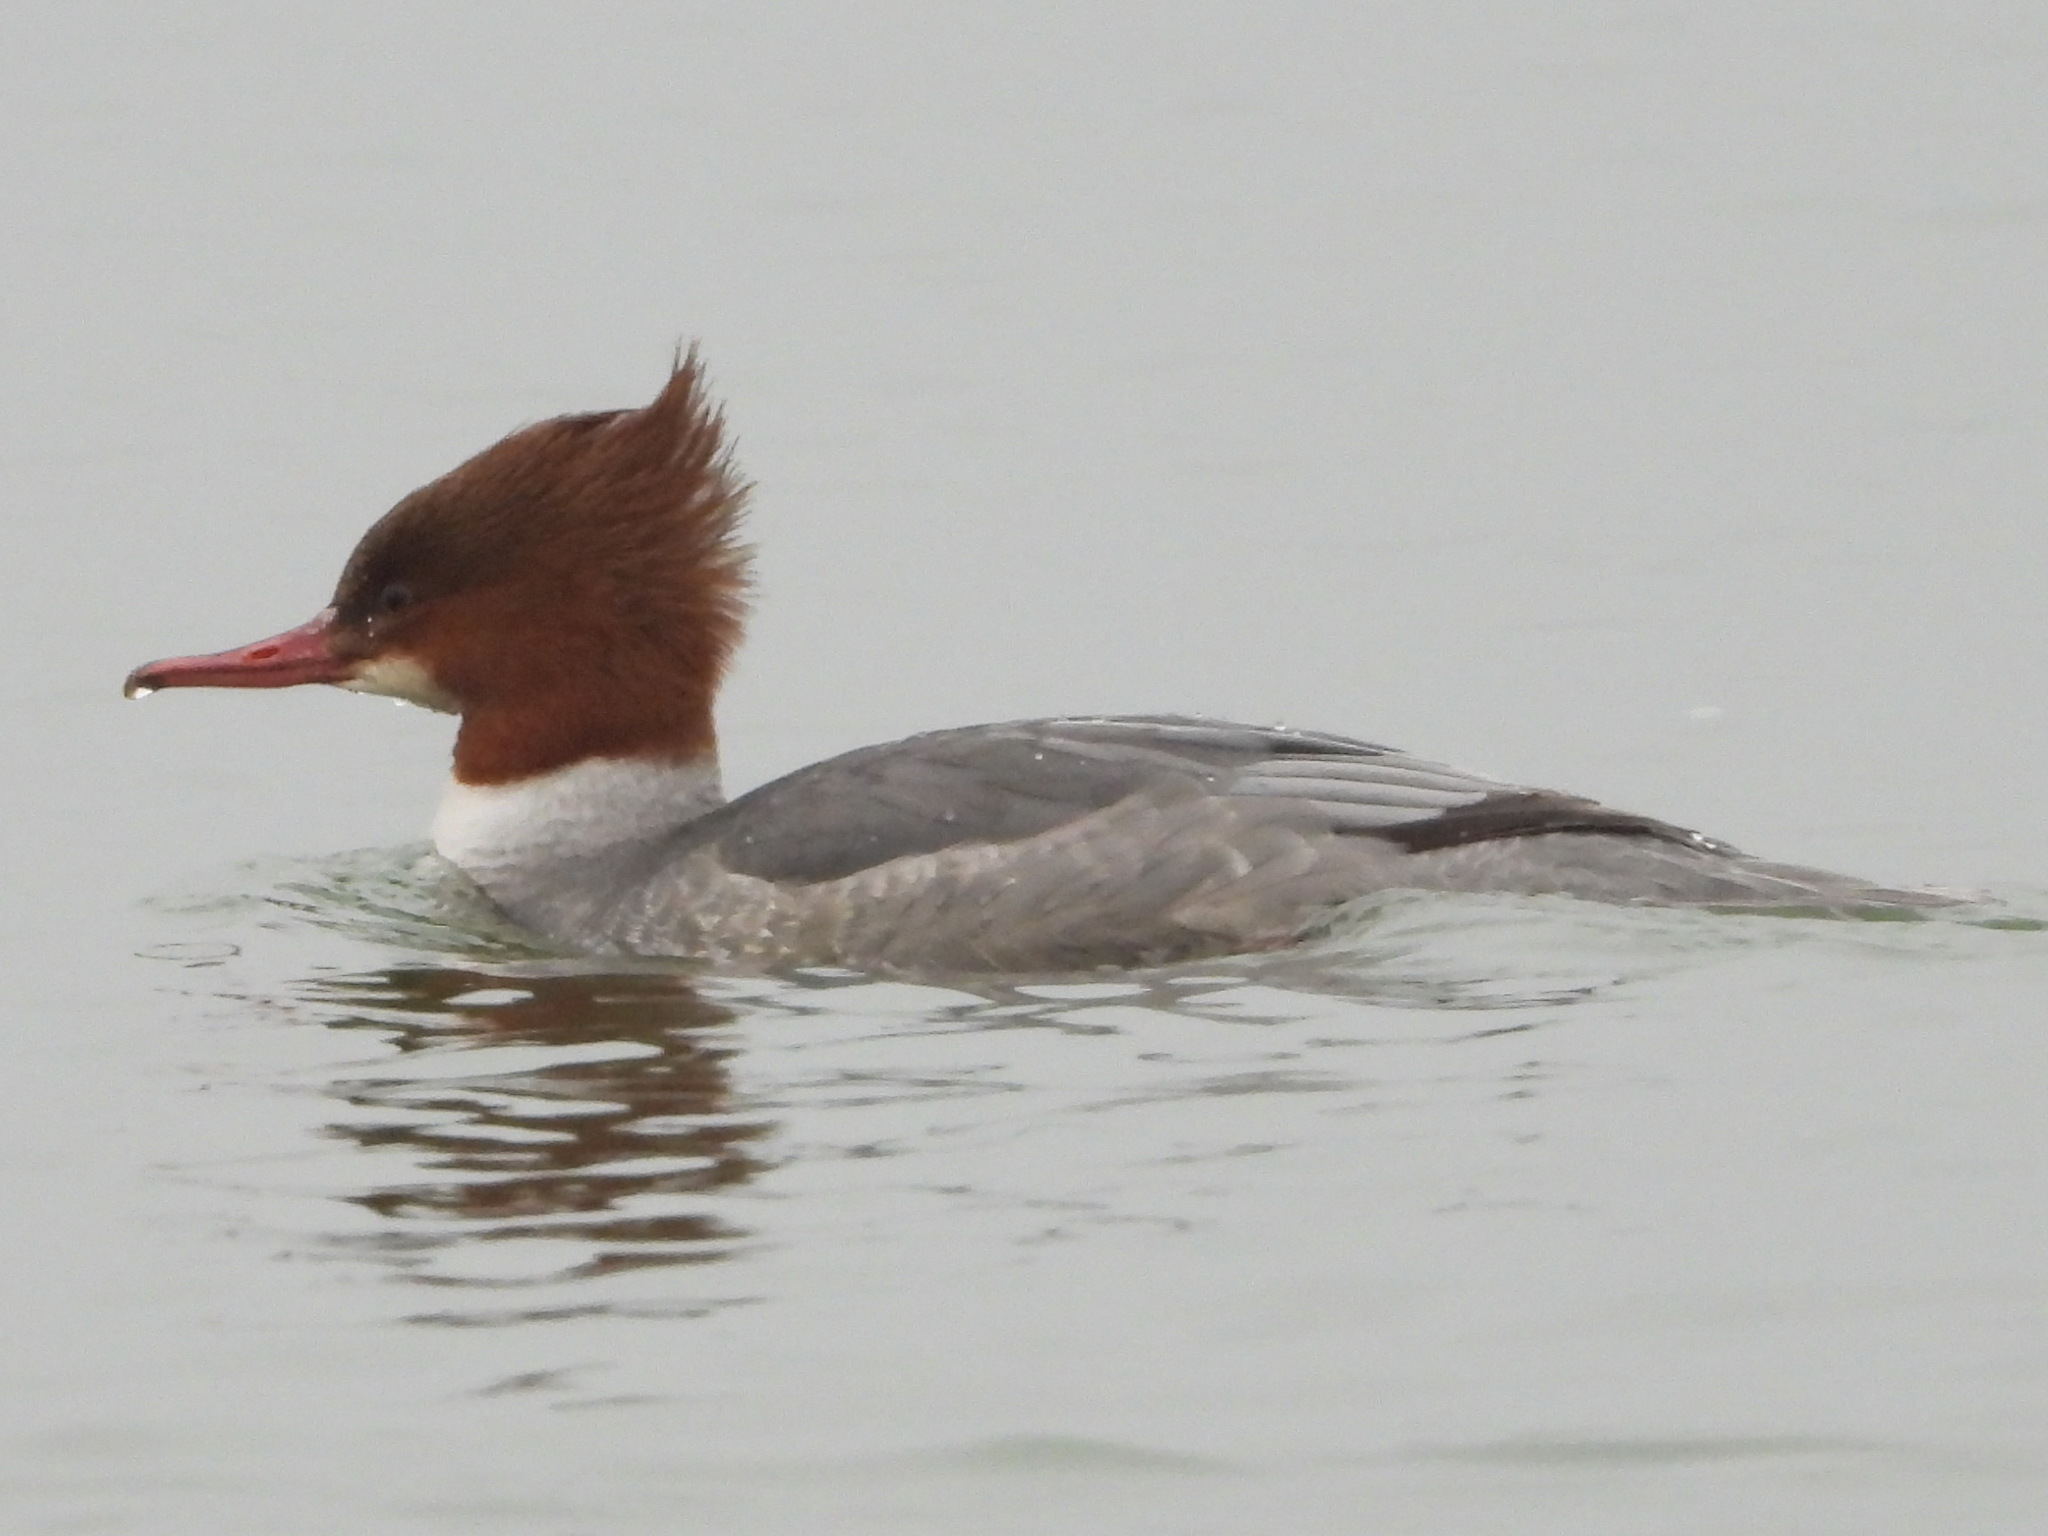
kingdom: Animalia
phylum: Chordata
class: Aves
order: Anseriformes
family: Anatidae
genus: Mergus
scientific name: Mergus merganser
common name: Common merganser
